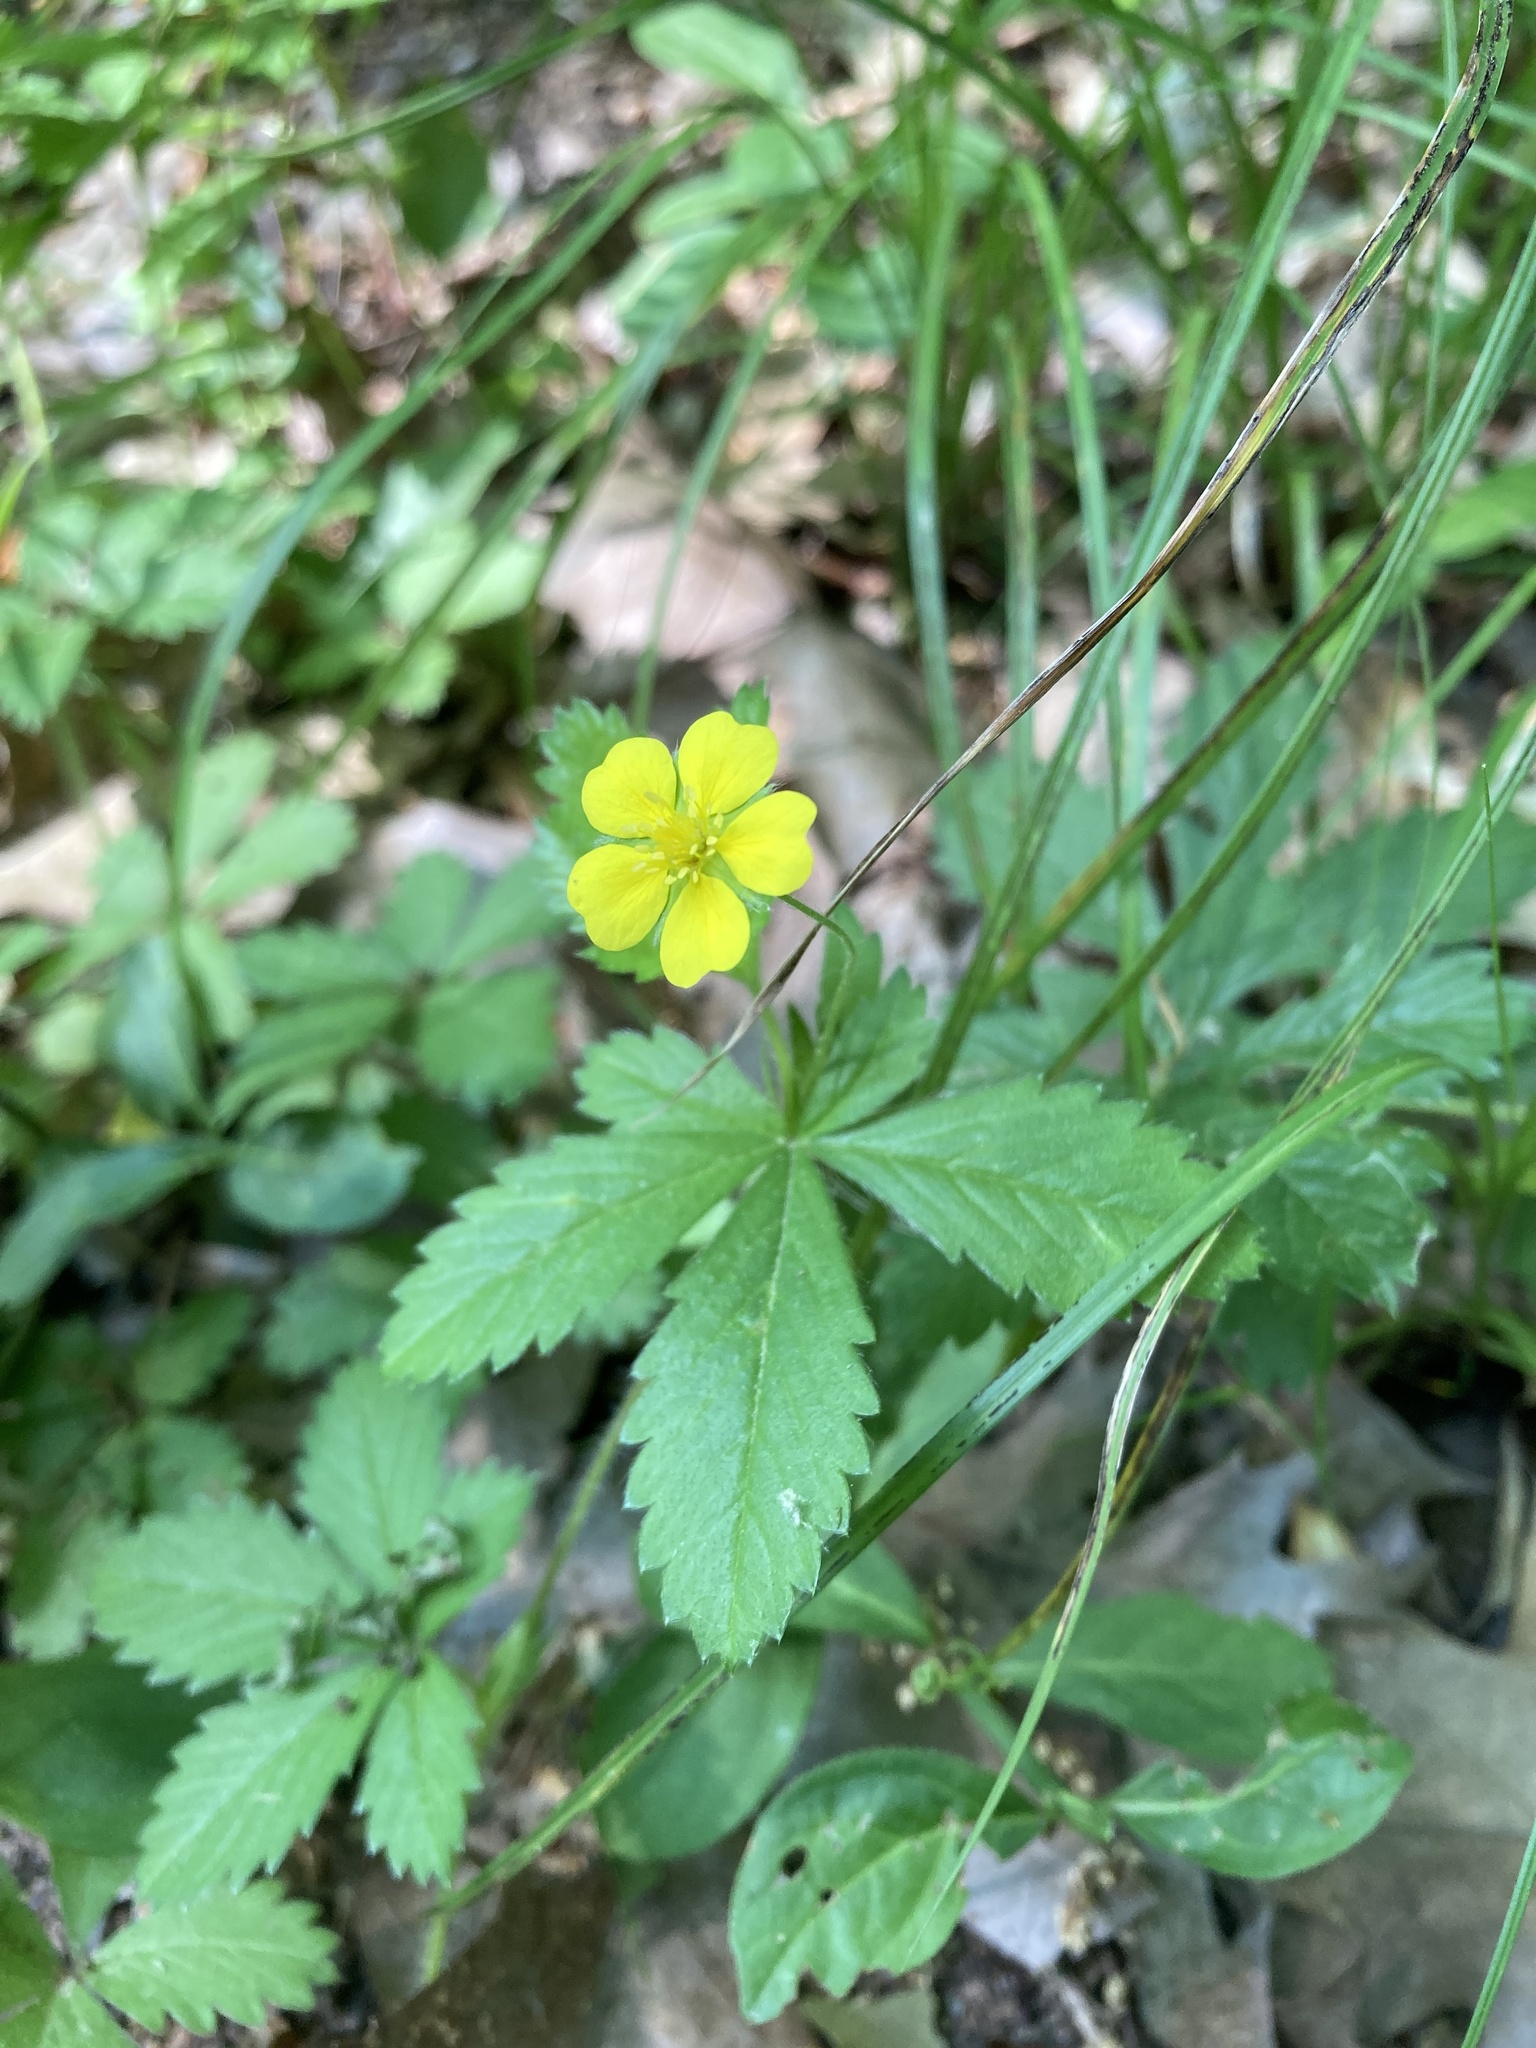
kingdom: Plantae
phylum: Tracheophyta
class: Magnoliopsida
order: Rosales
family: Rosaceae
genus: Potentilla
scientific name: Potentilla simplex
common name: Old field cinquefoil
